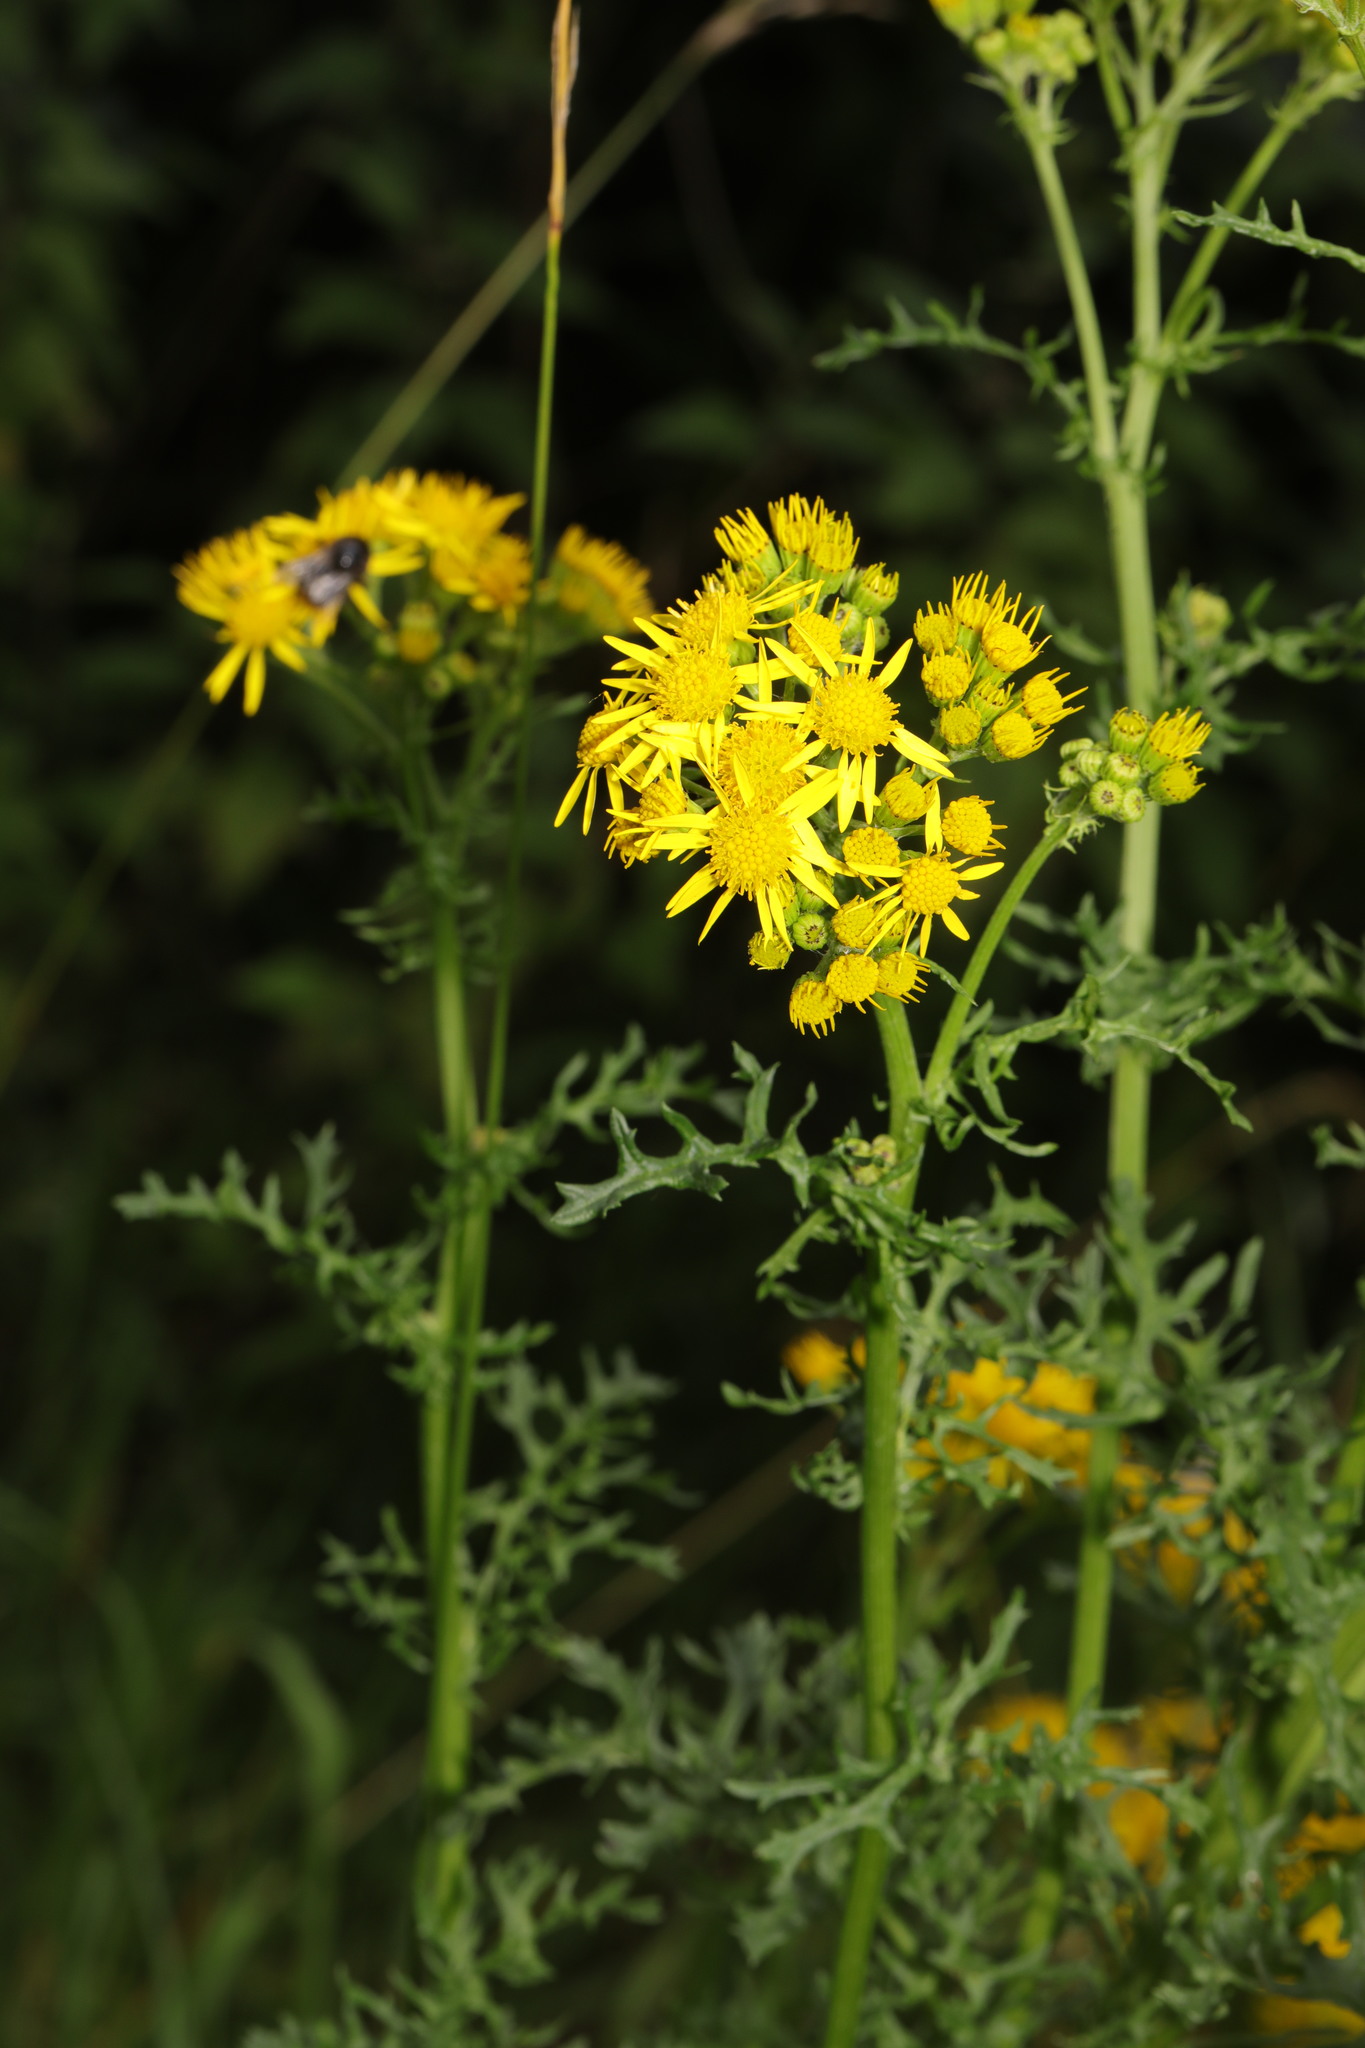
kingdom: Plantae
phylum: Tracheophyta
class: Magnoliopsida
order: Asterales
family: Asteraceae
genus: Jacobaea
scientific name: Jacobaea vulgaris
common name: Stinking willie
